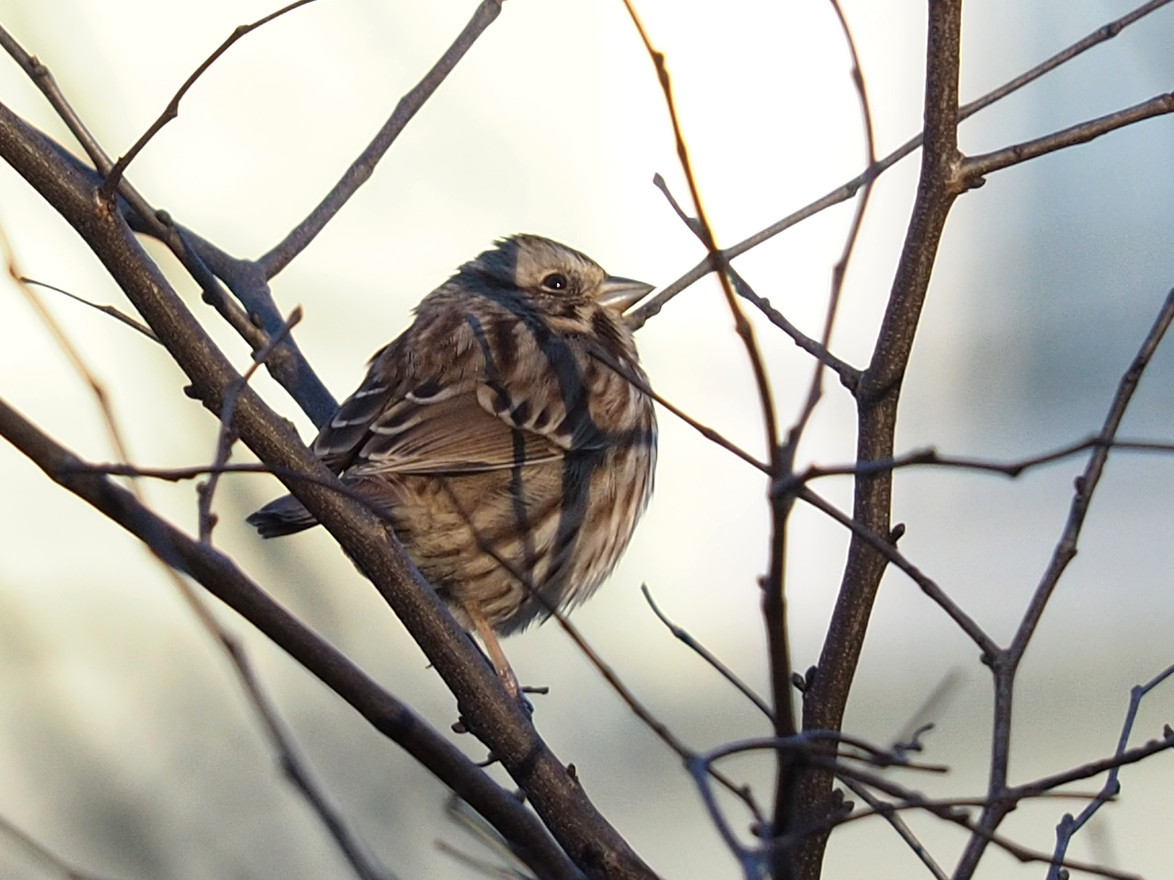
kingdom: Animalia
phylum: Chordata
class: Aves
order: Passeriformes
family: Passerellidae
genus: Melospiza
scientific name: Melospiza melodia
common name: Song sparrow
